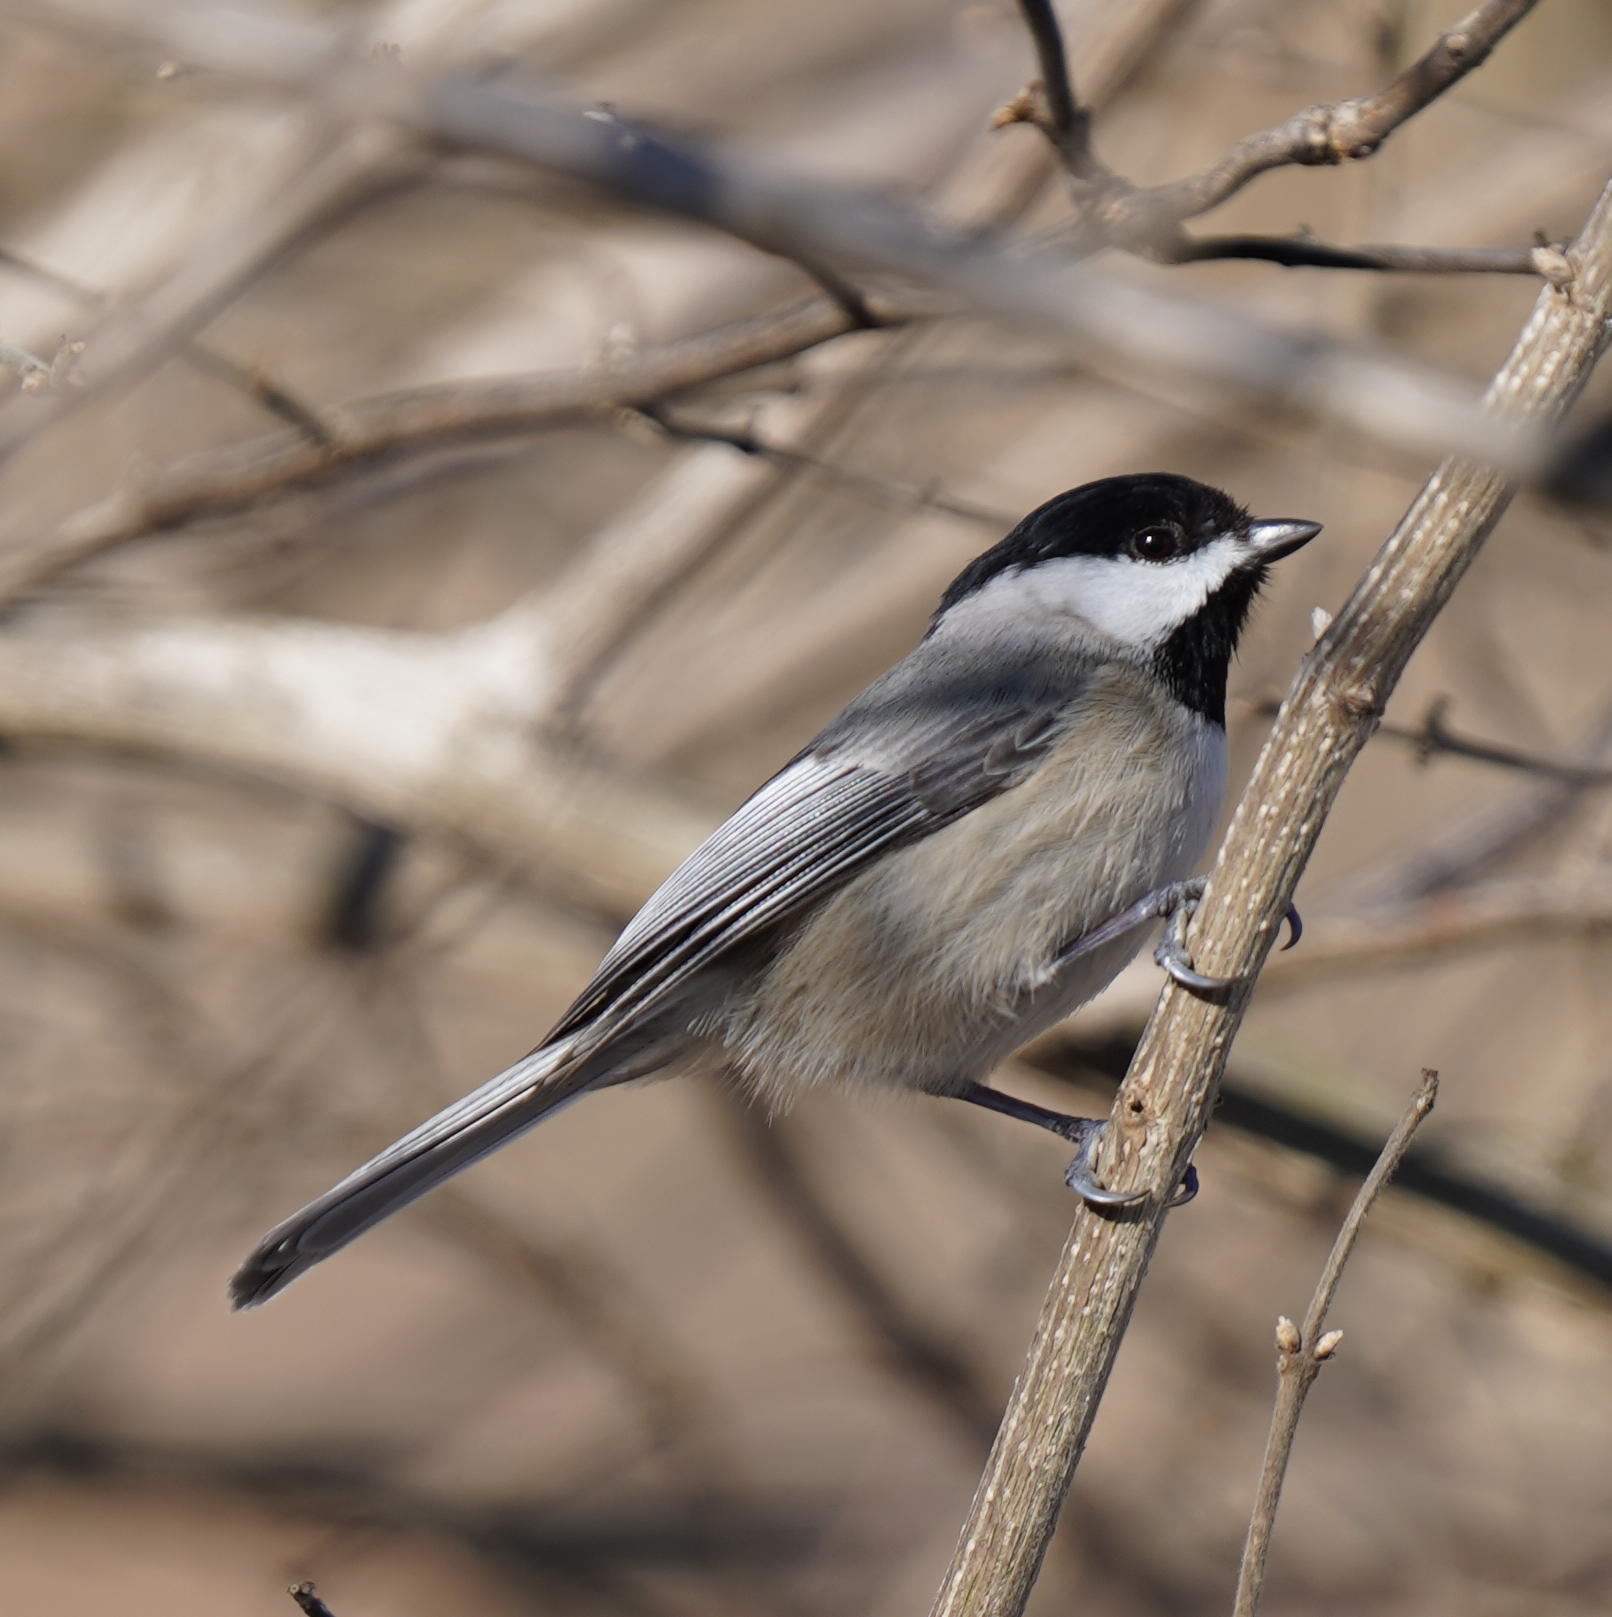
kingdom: Animalia
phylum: Chordata
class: Aves
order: Passeriformes
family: Paridae
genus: Poecile
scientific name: Poecile carolinensis
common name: Carolina chickadee
